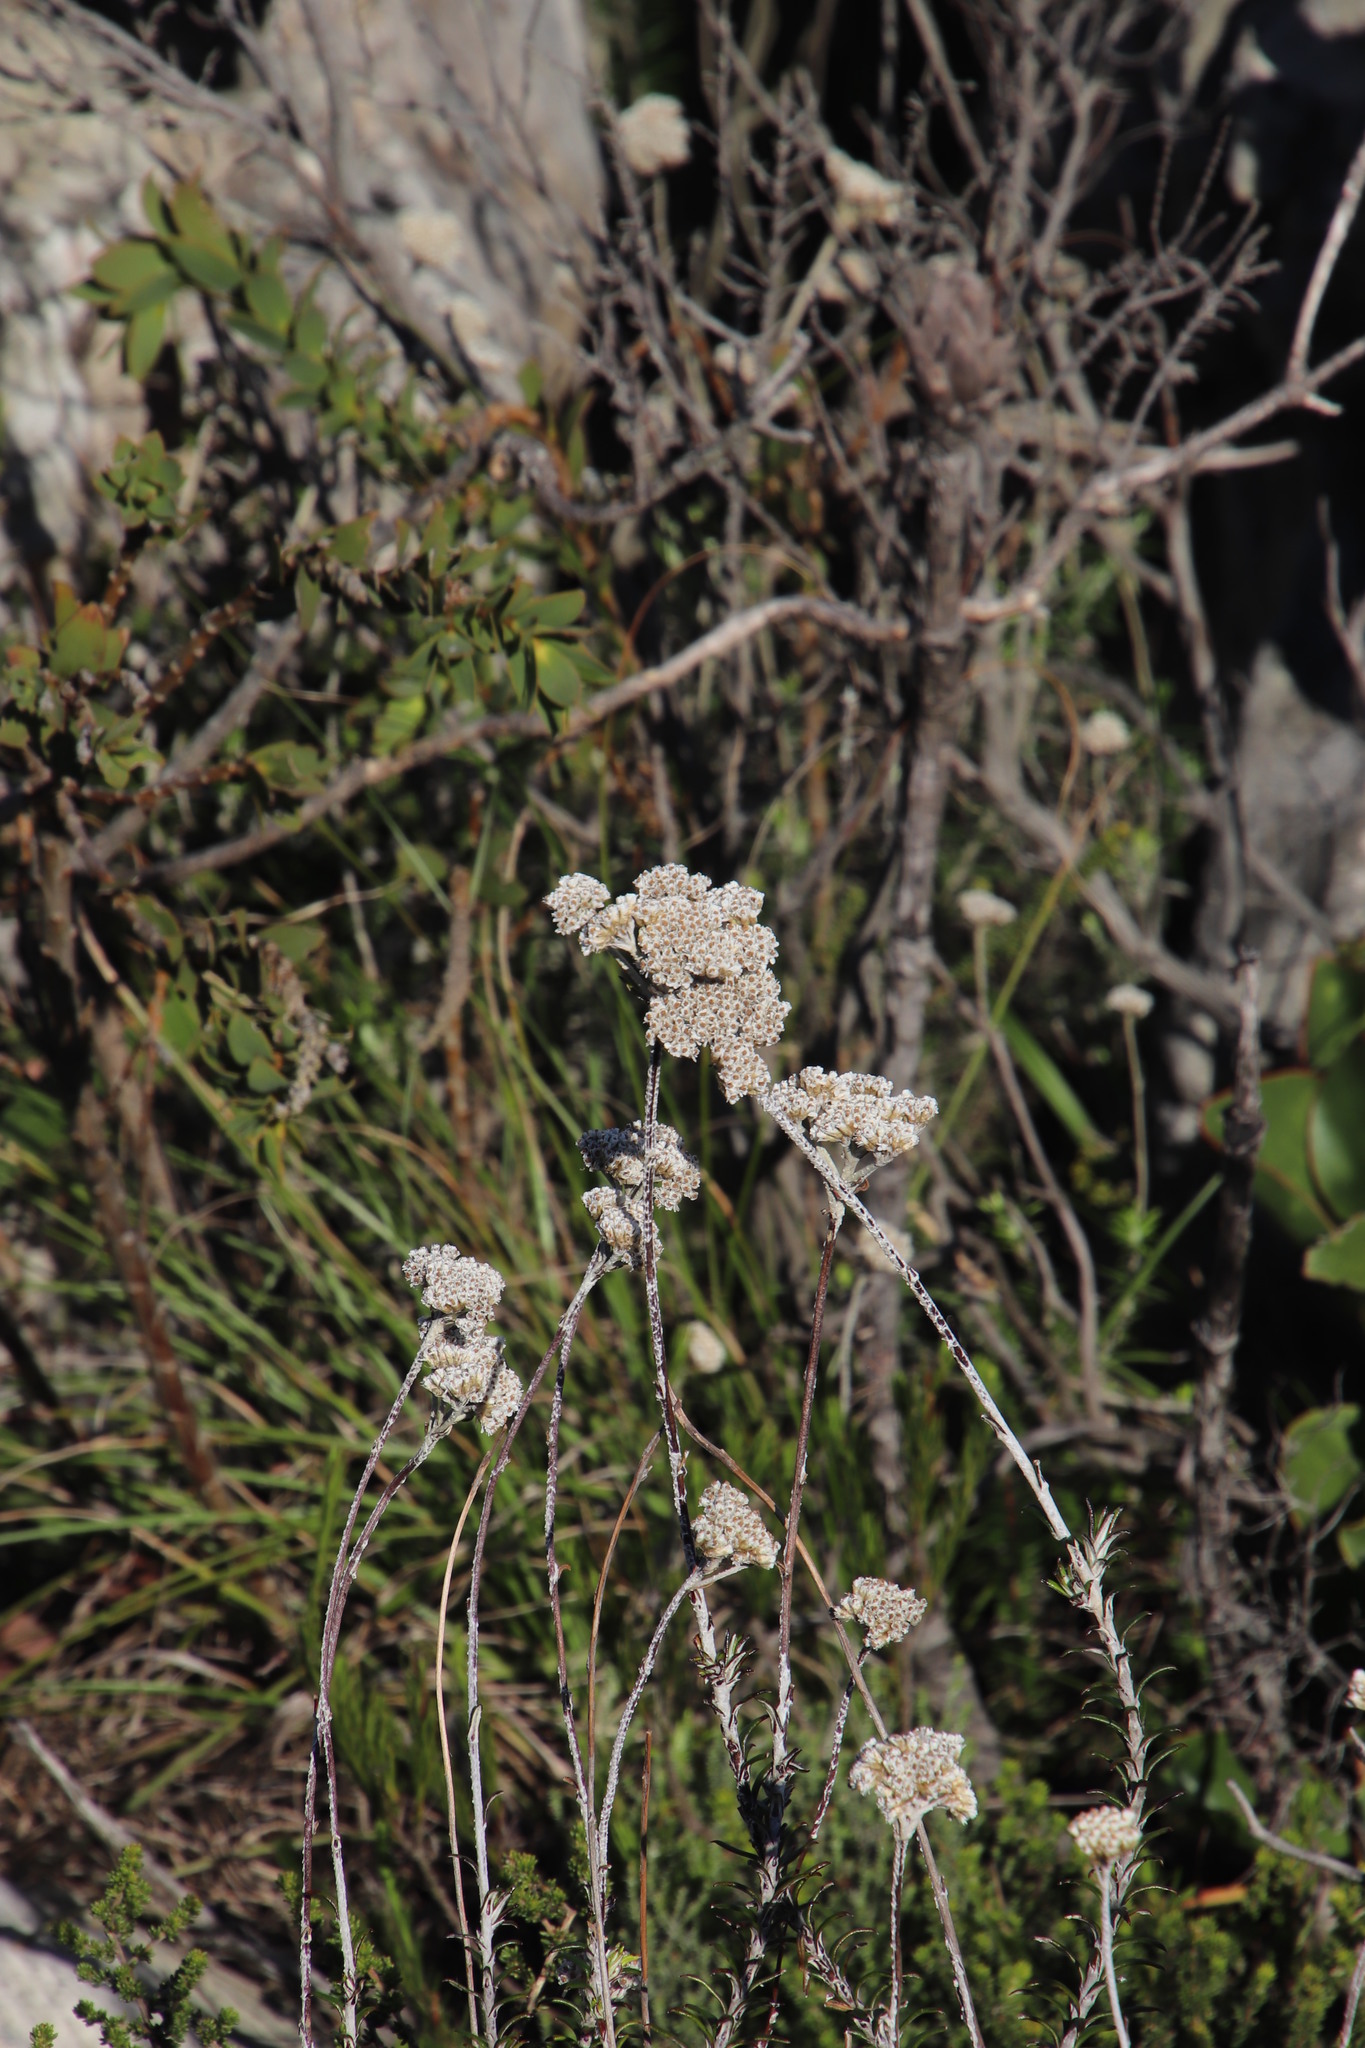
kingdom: Plantae
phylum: Tracheophyta
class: Magnoliopsida
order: Asterales
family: Asteraceae
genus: Anaxeton
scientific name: Anaxeton arborescens
